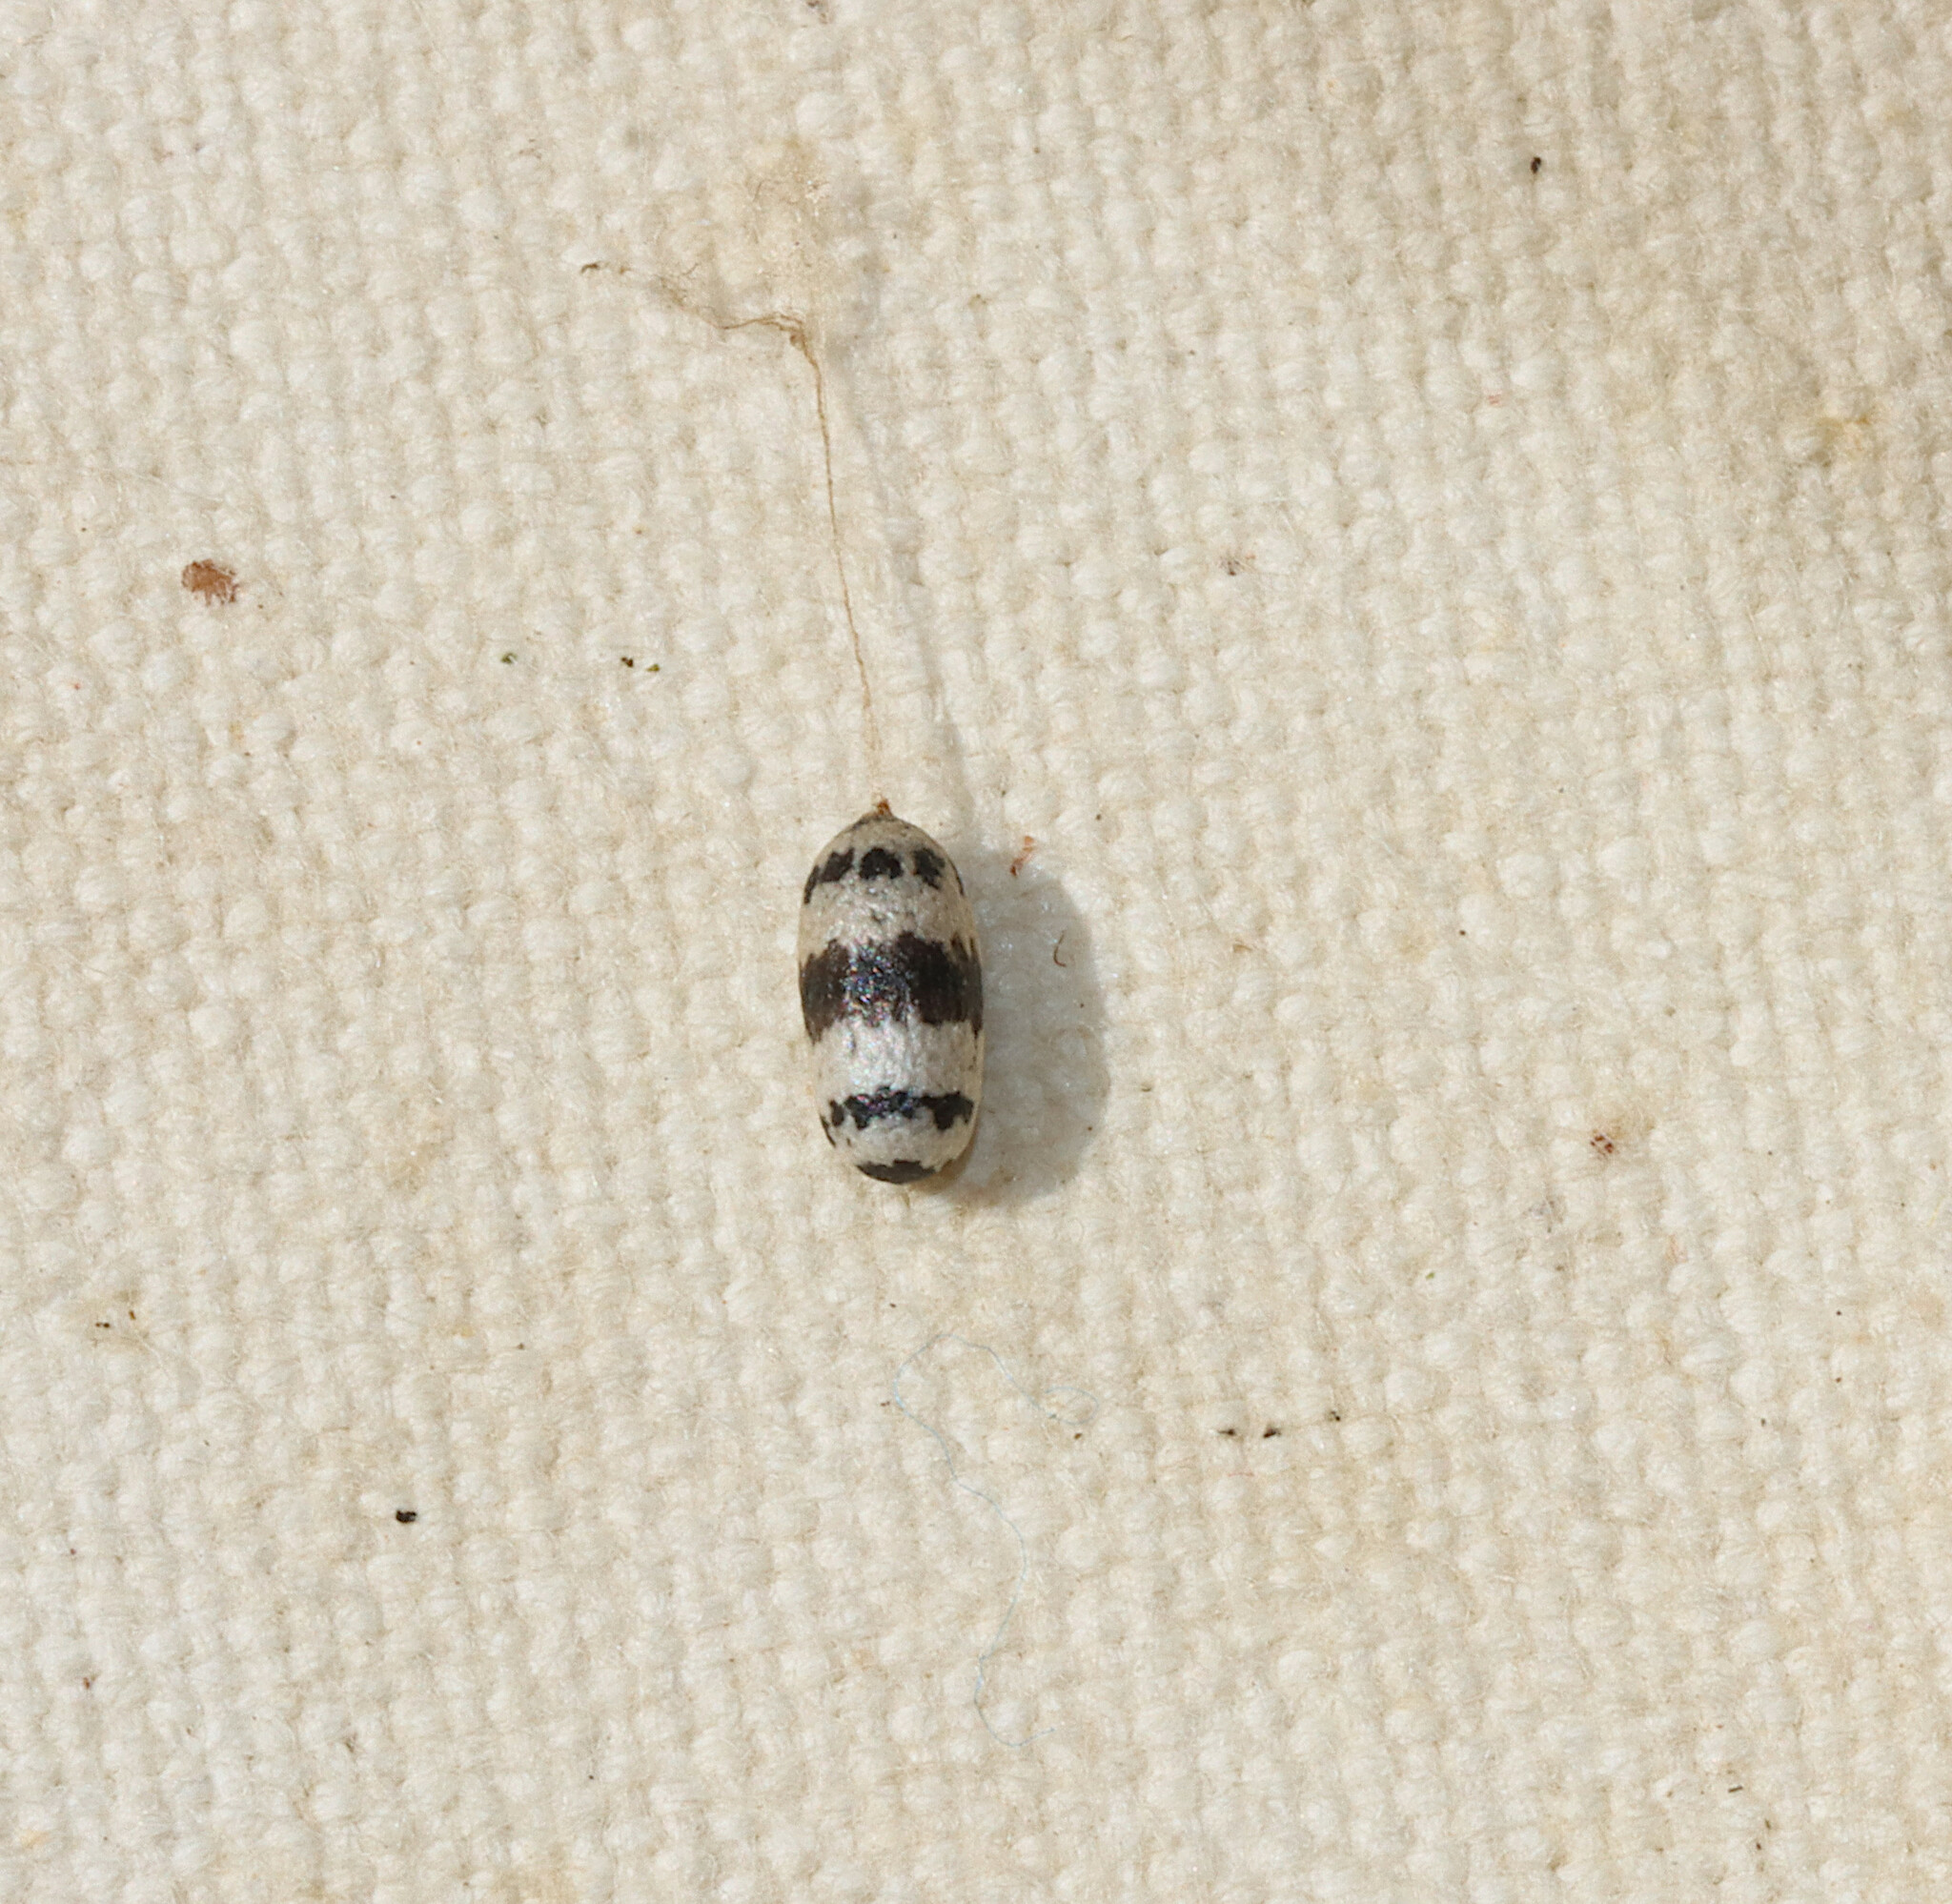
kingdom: Animalia
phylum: Arthropoda
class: Insecta
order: Hymenoptera
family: Ichneumonidae
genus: Charops
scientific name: Charops annulipes
